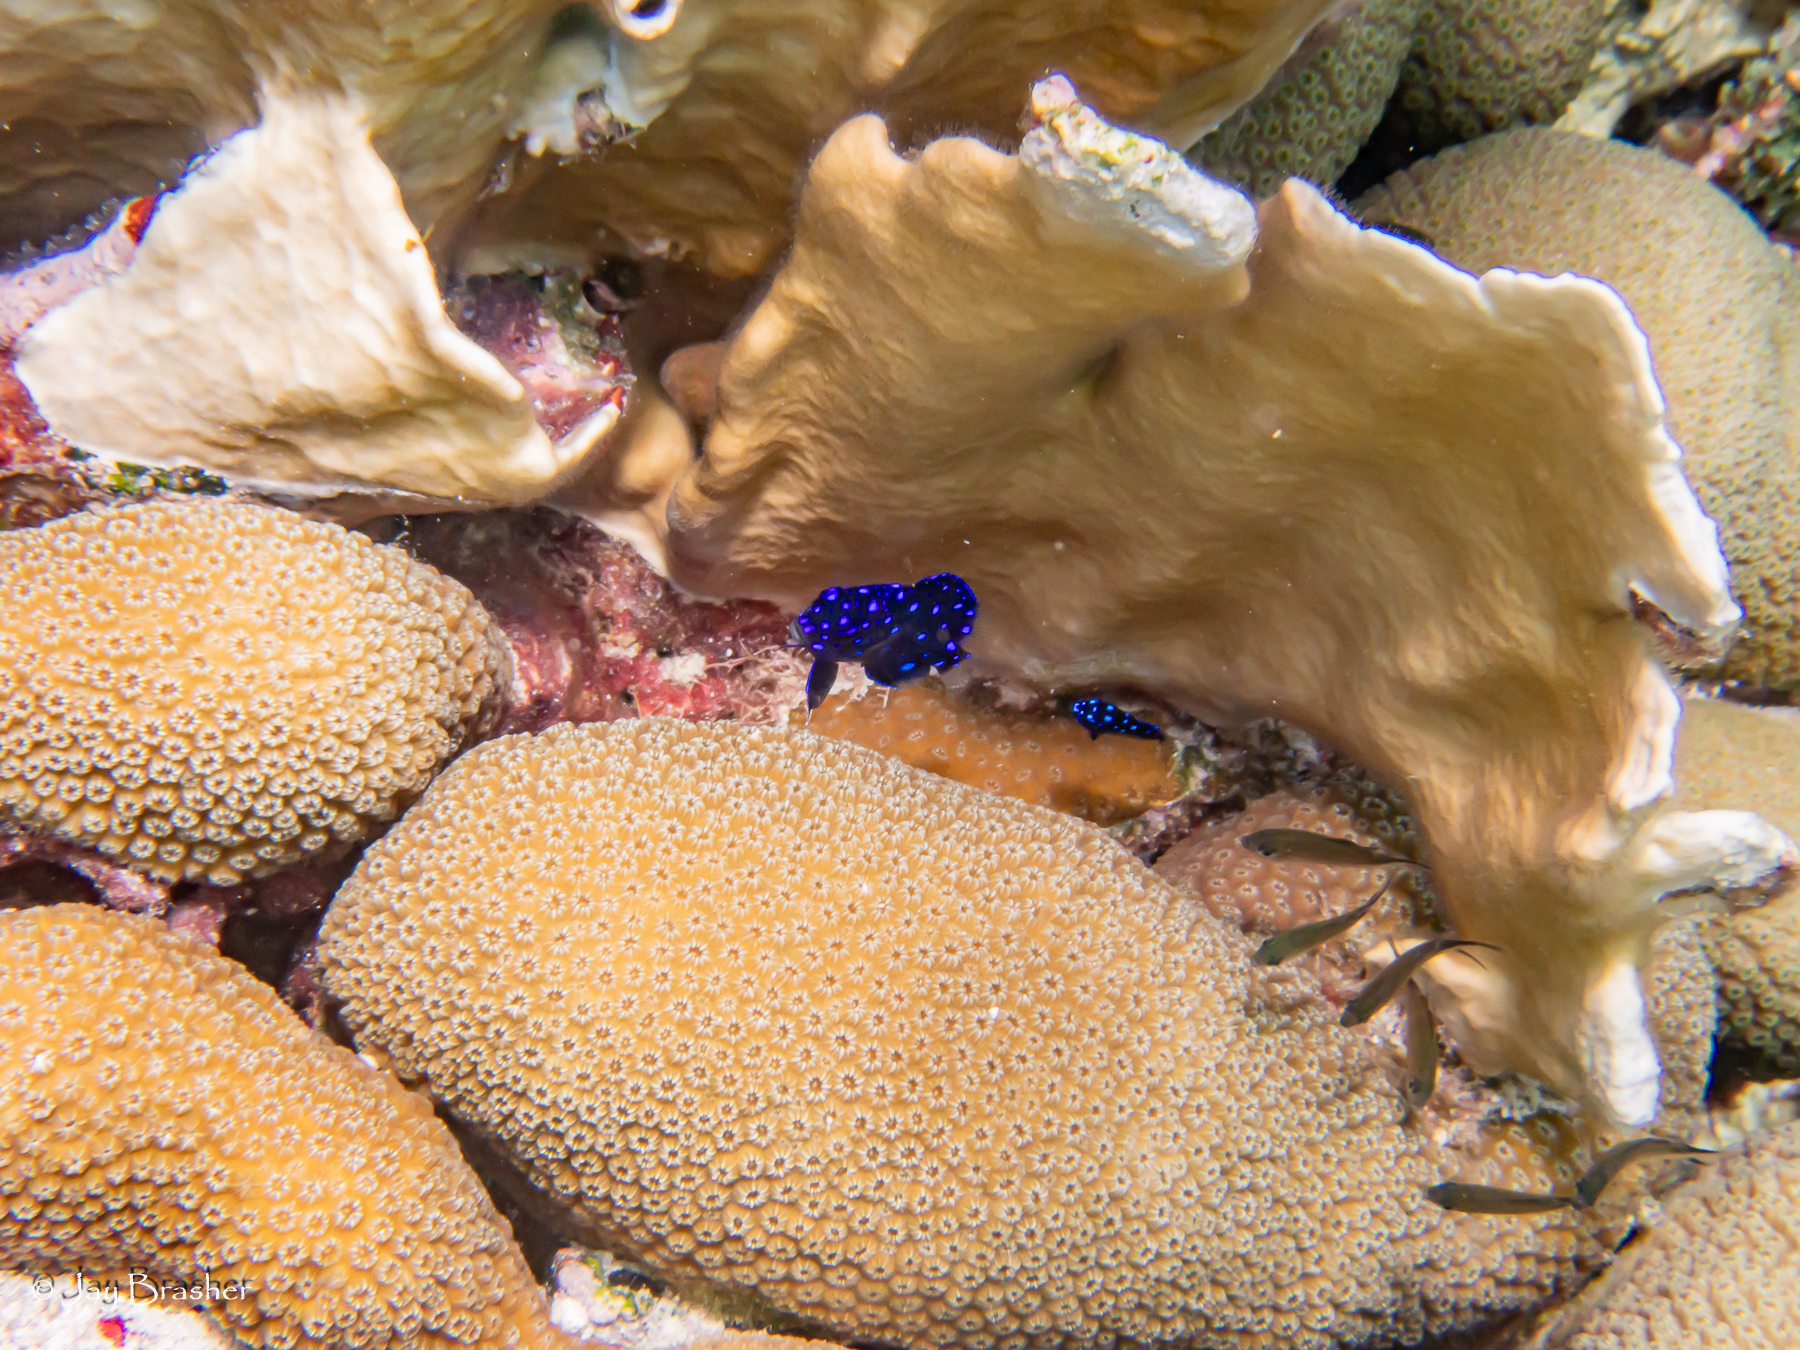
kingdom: Animalia
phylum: Cnidaria
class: Hydrozoa
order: Anthoathecata
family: Milleporidae
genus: Millepora
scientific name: Millepora complanata
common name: Bladed fire coral
